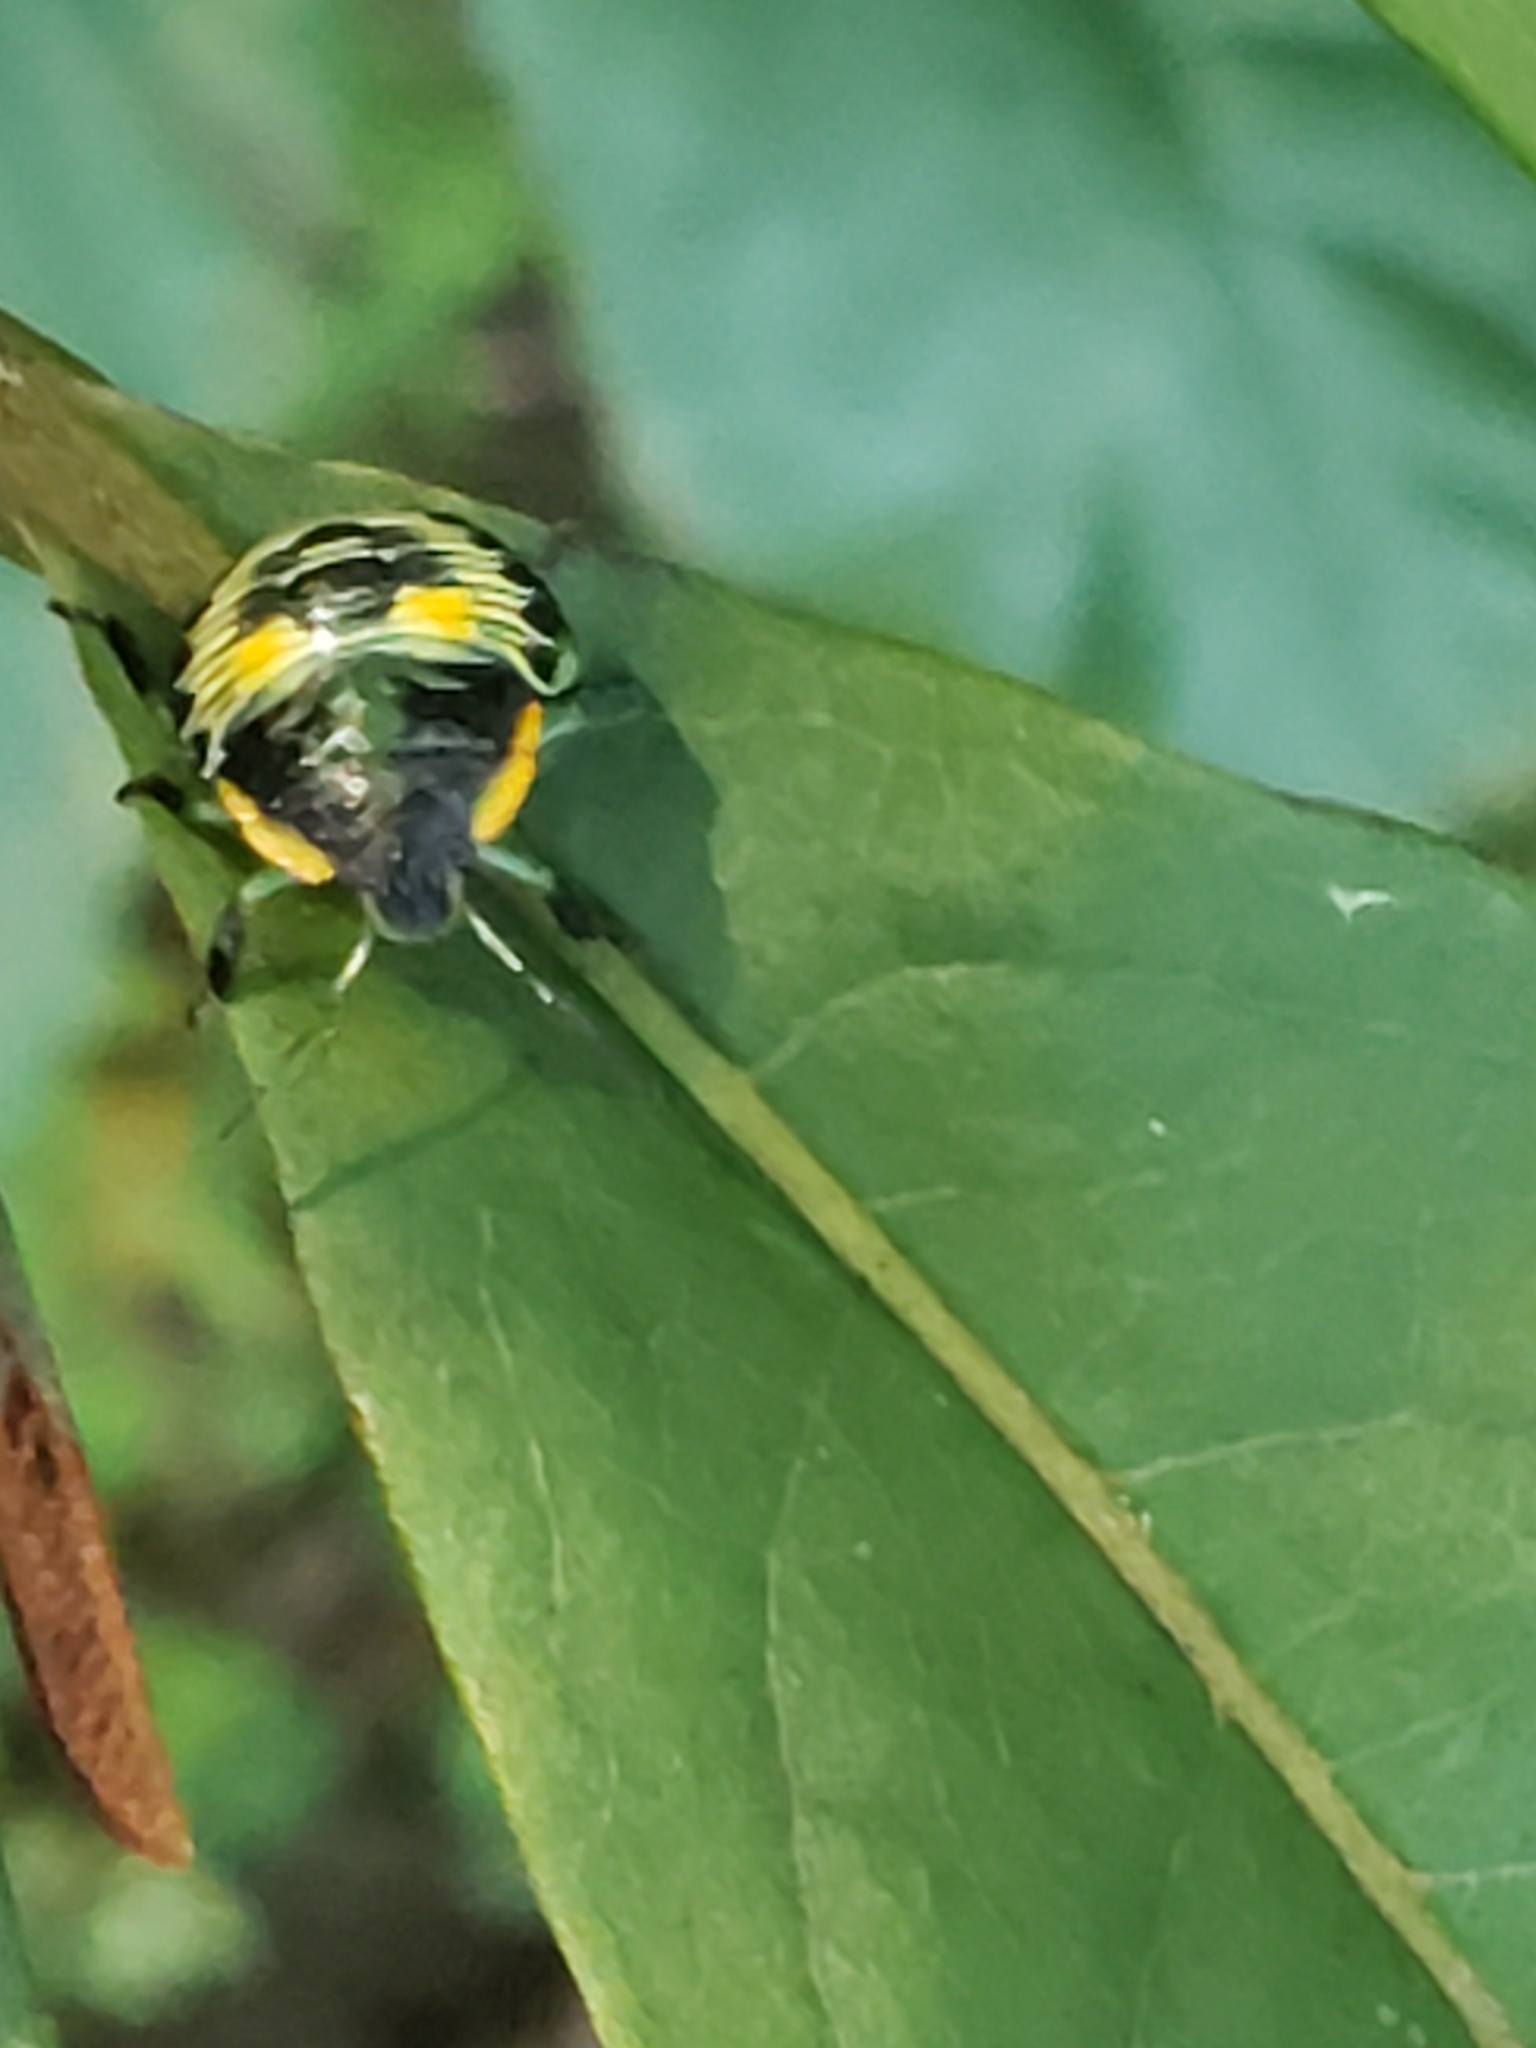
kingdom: Animalia
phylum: Arthropoda
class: Insecta
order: Hemiptera
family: Pentatomidae
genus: Chinavia
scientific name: Chinavia hilaris
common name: Green stink bug
